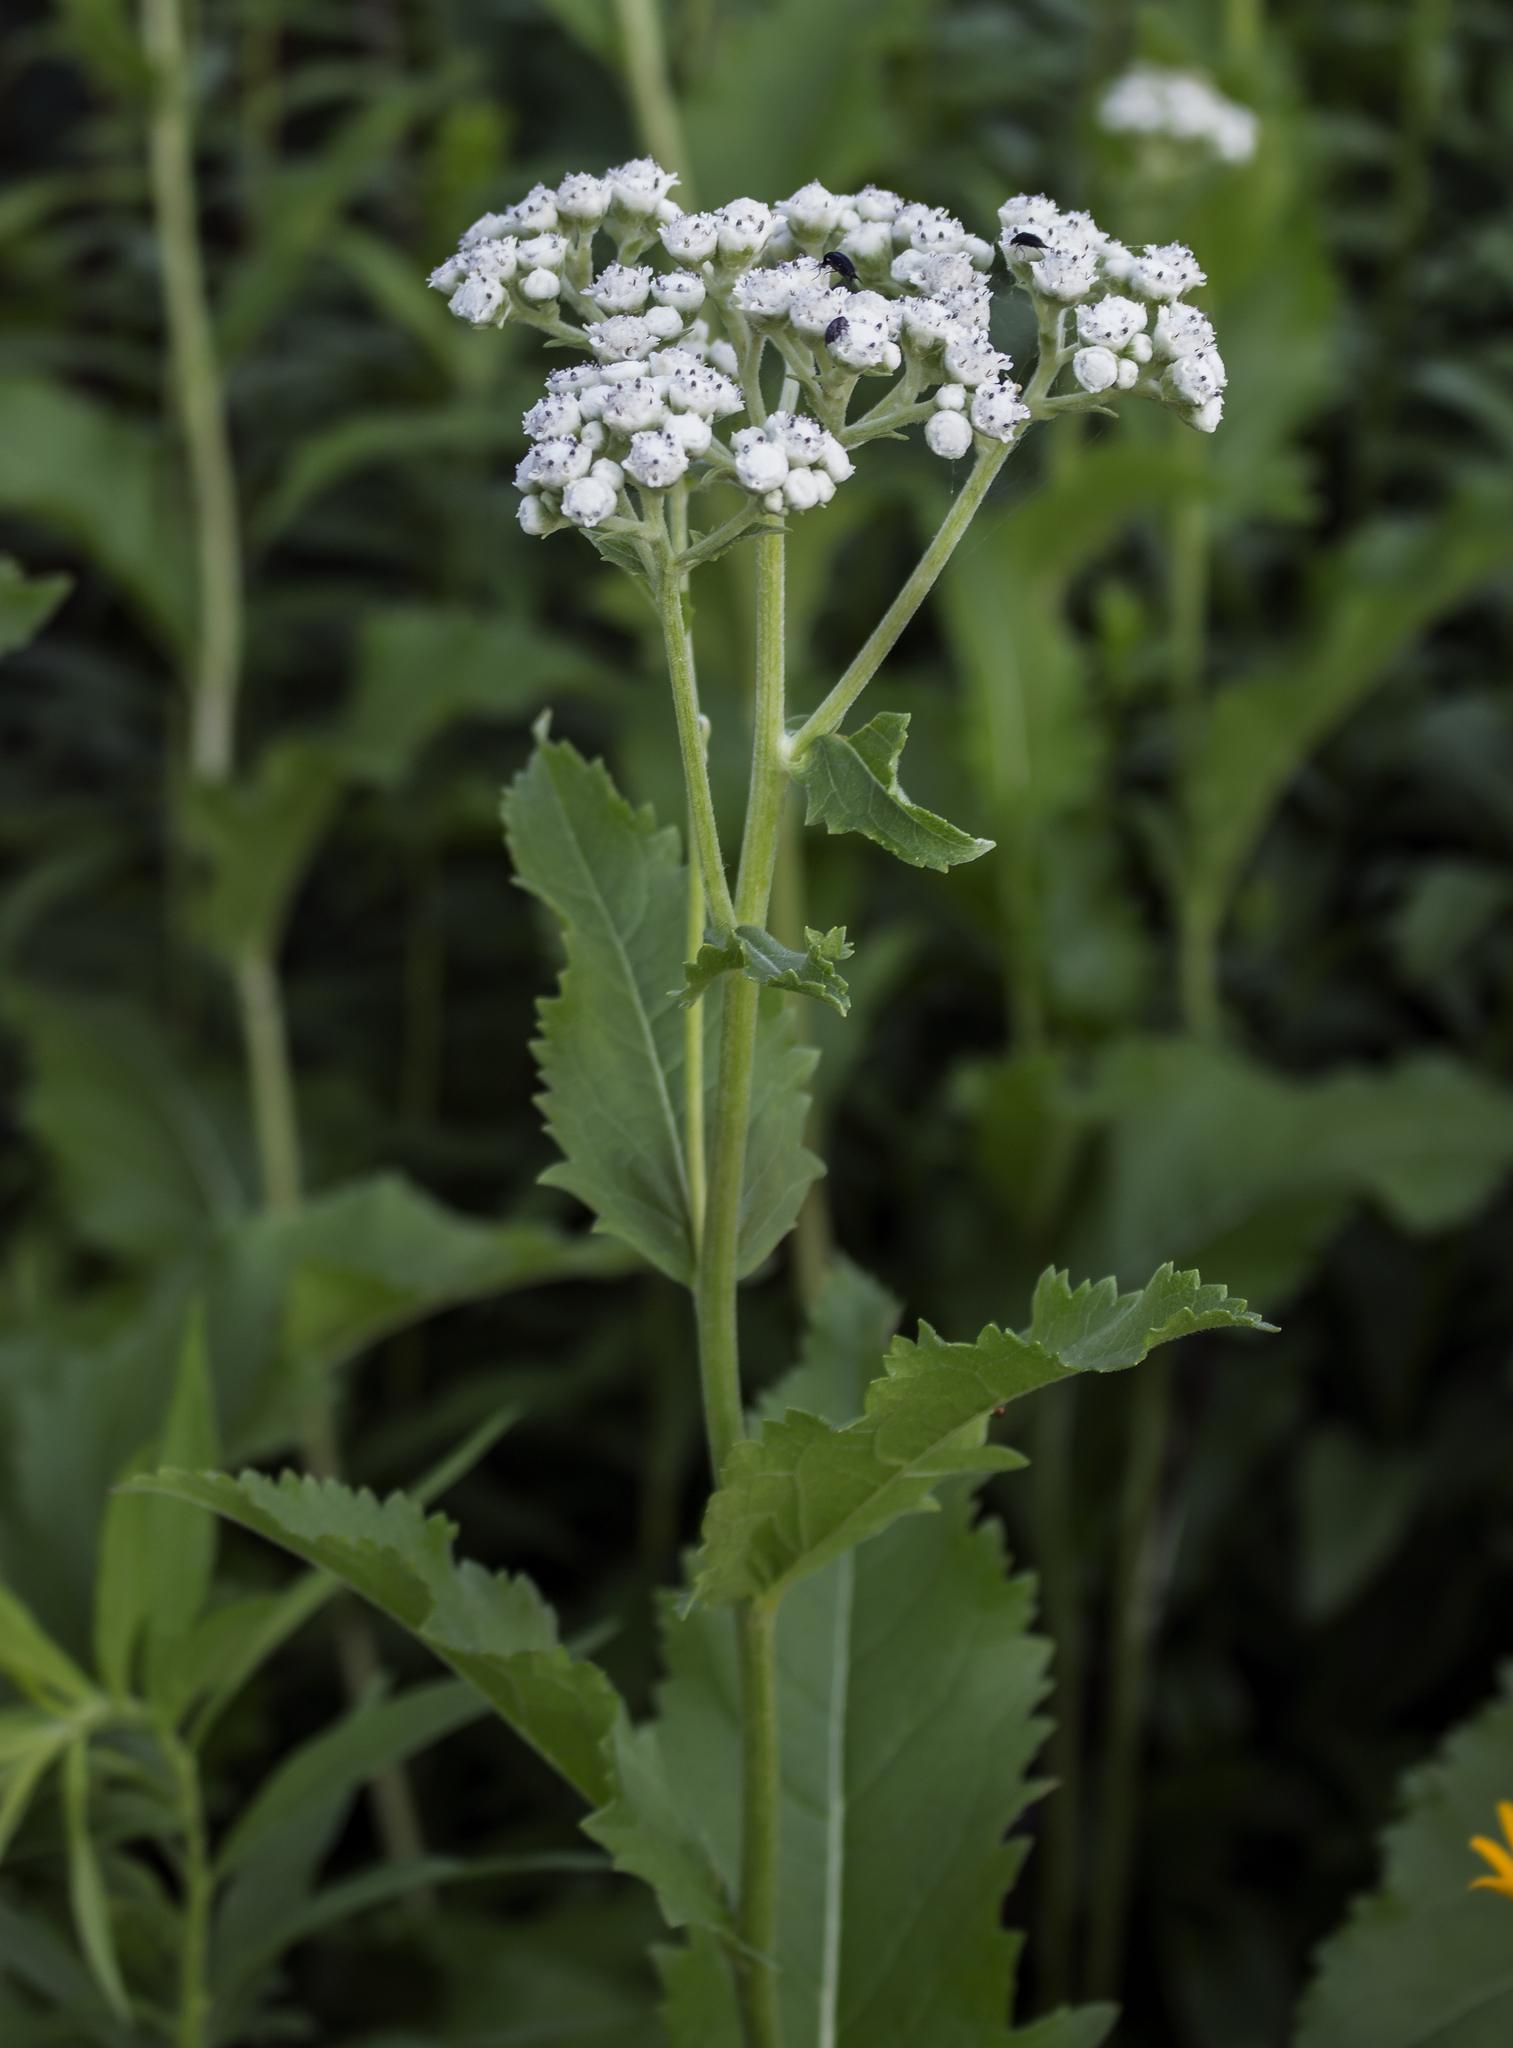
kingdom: Plantae
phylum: Tracheophyta
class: Magnoliopsida
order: Asterales
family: Asteraceae
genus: Parthenium
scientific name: Parthenium integrifolium
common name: American feverfew
